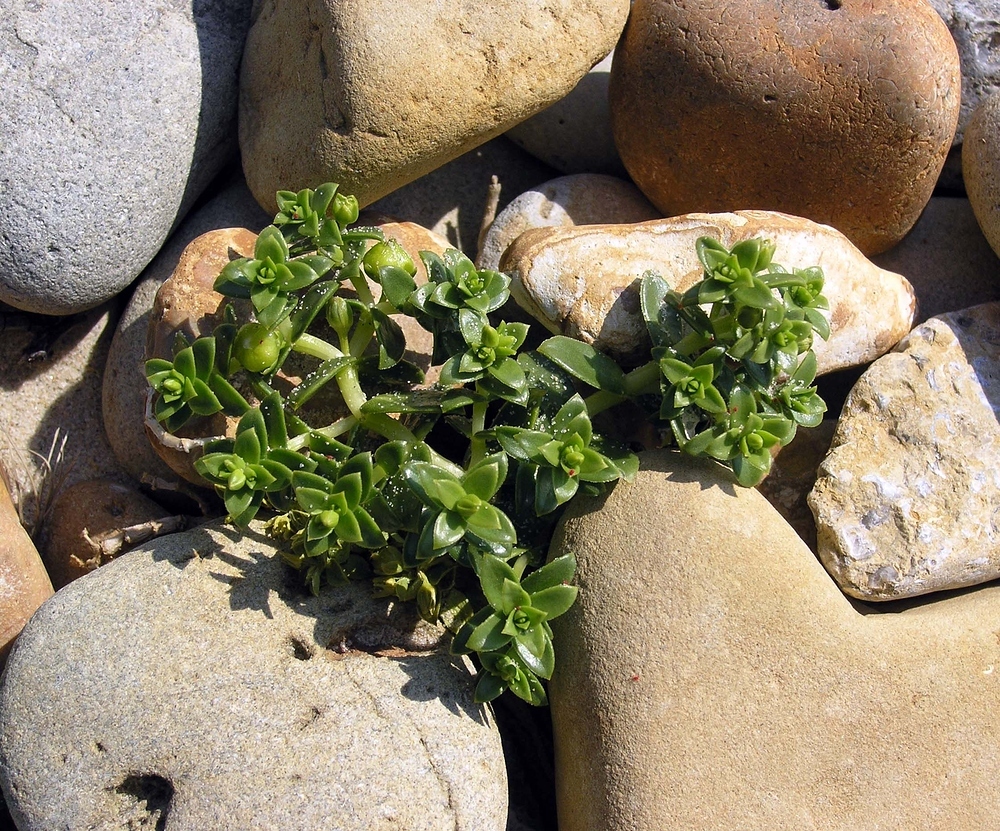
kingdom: Plantae
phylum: Tracheophyta
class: Magnoliopsida
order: Caryophyllales
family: Caryophyllaceae
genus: Honckenya
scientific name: Honckenya peploides
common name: Sea sandwort
